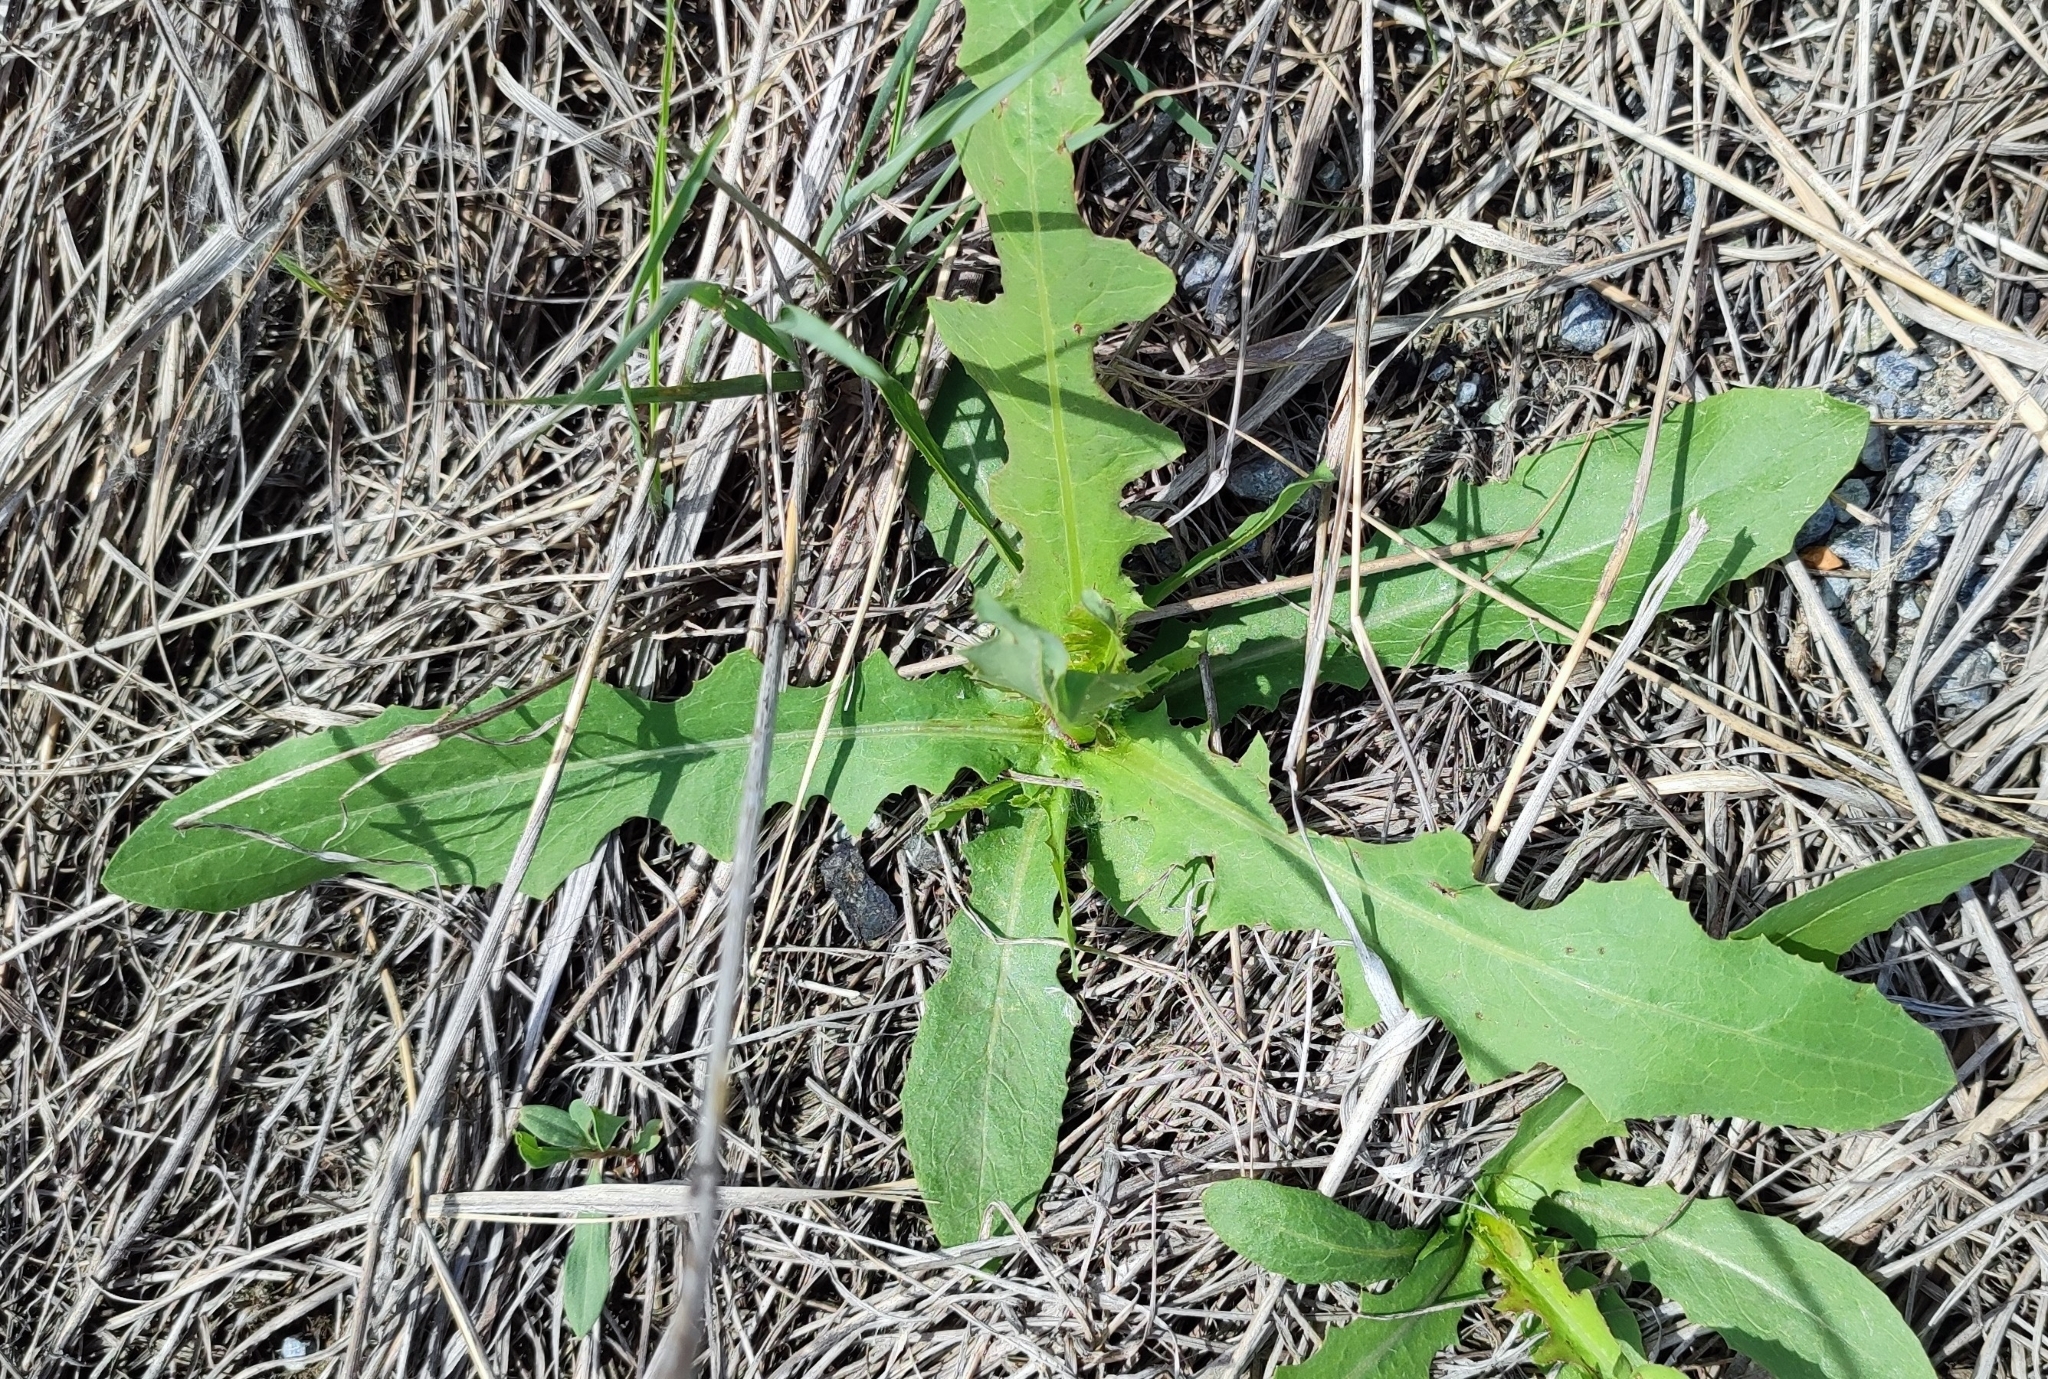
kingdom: Plantae
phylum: Tracheophyta
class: Magnoliopsida
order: Asterales
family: Asteraceae
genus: Lactuca
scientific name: Lactuca serriola
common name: Prickly lettuce
